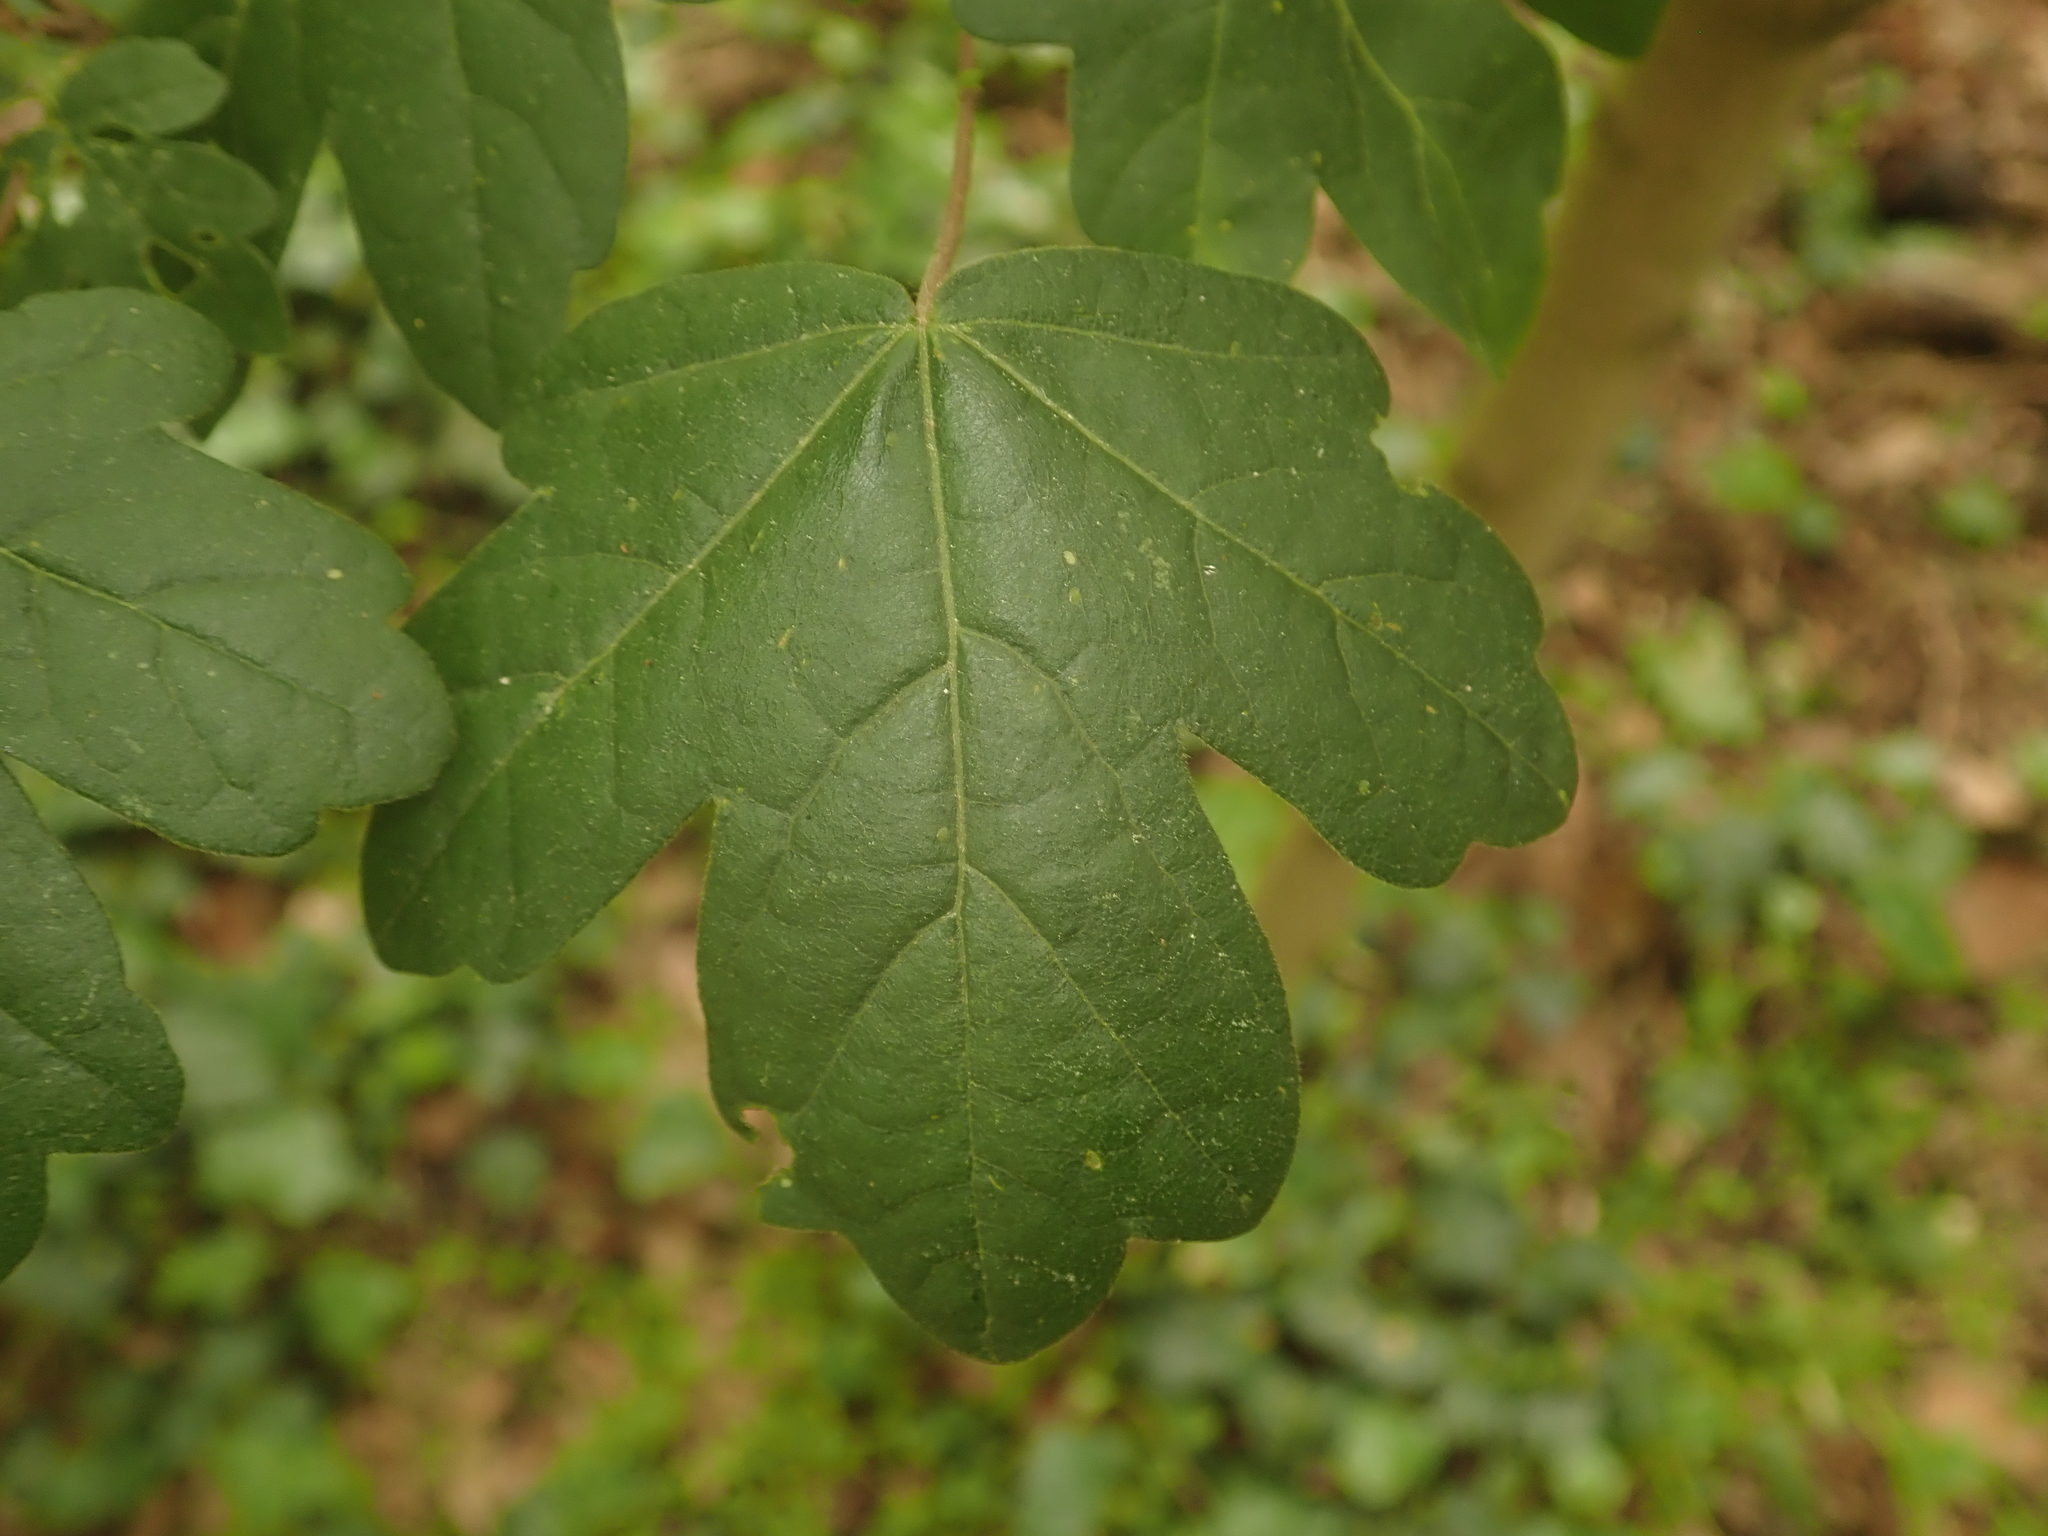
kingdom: Plantae
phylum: Tracheophyta
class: Magnoliopsida
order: Sapindales
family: Sapindaceae
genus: Acer
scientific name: Acer campestre
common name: Field maple
